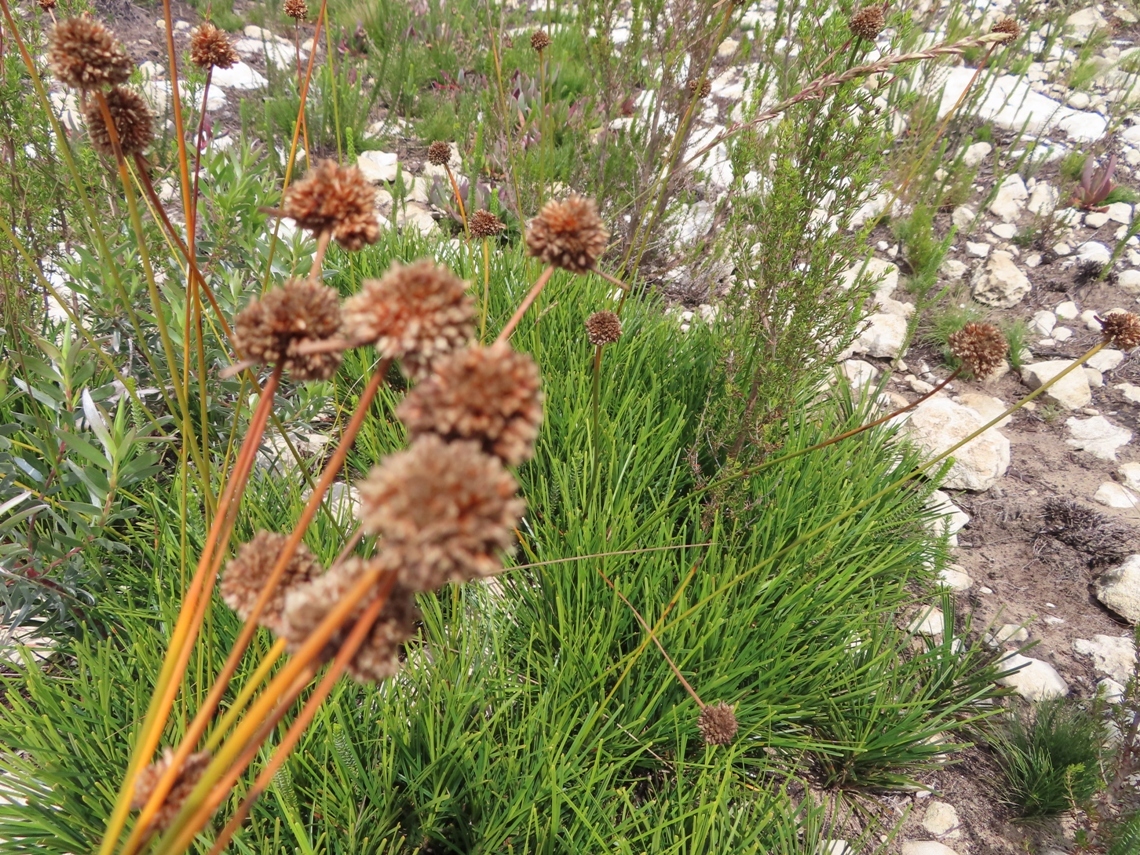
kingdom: Plantae
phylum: Tracheophyta
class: Liliopsida
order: Poales
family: Cyperaceae
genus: Ficinia
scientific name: Ficinia praemorsa
